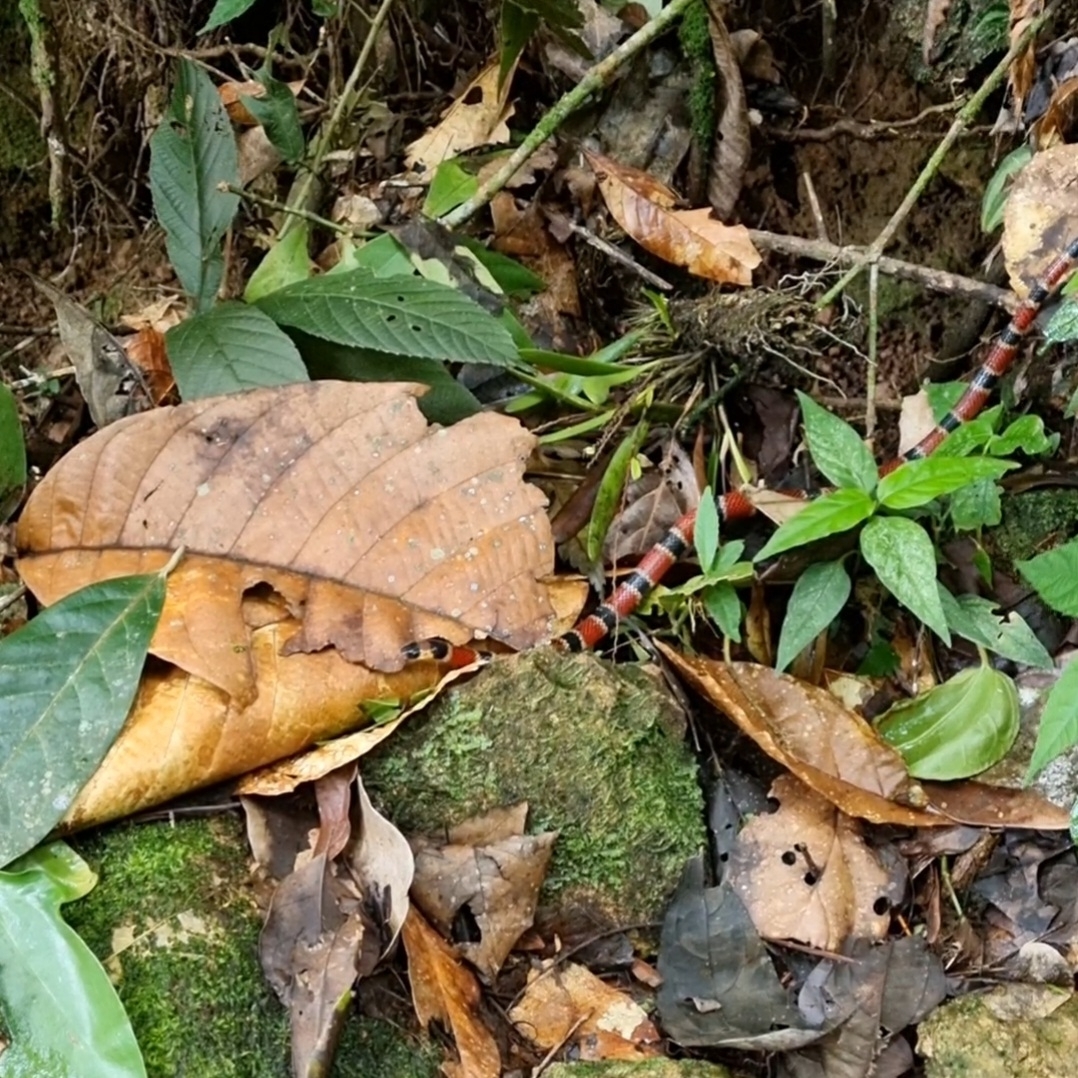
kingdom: Animalia
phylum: Chordata
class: Squamata
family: Elapidae
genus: Micrurus
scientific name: Micrurus nigrocinctus
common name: Babaspul [babaspul]
